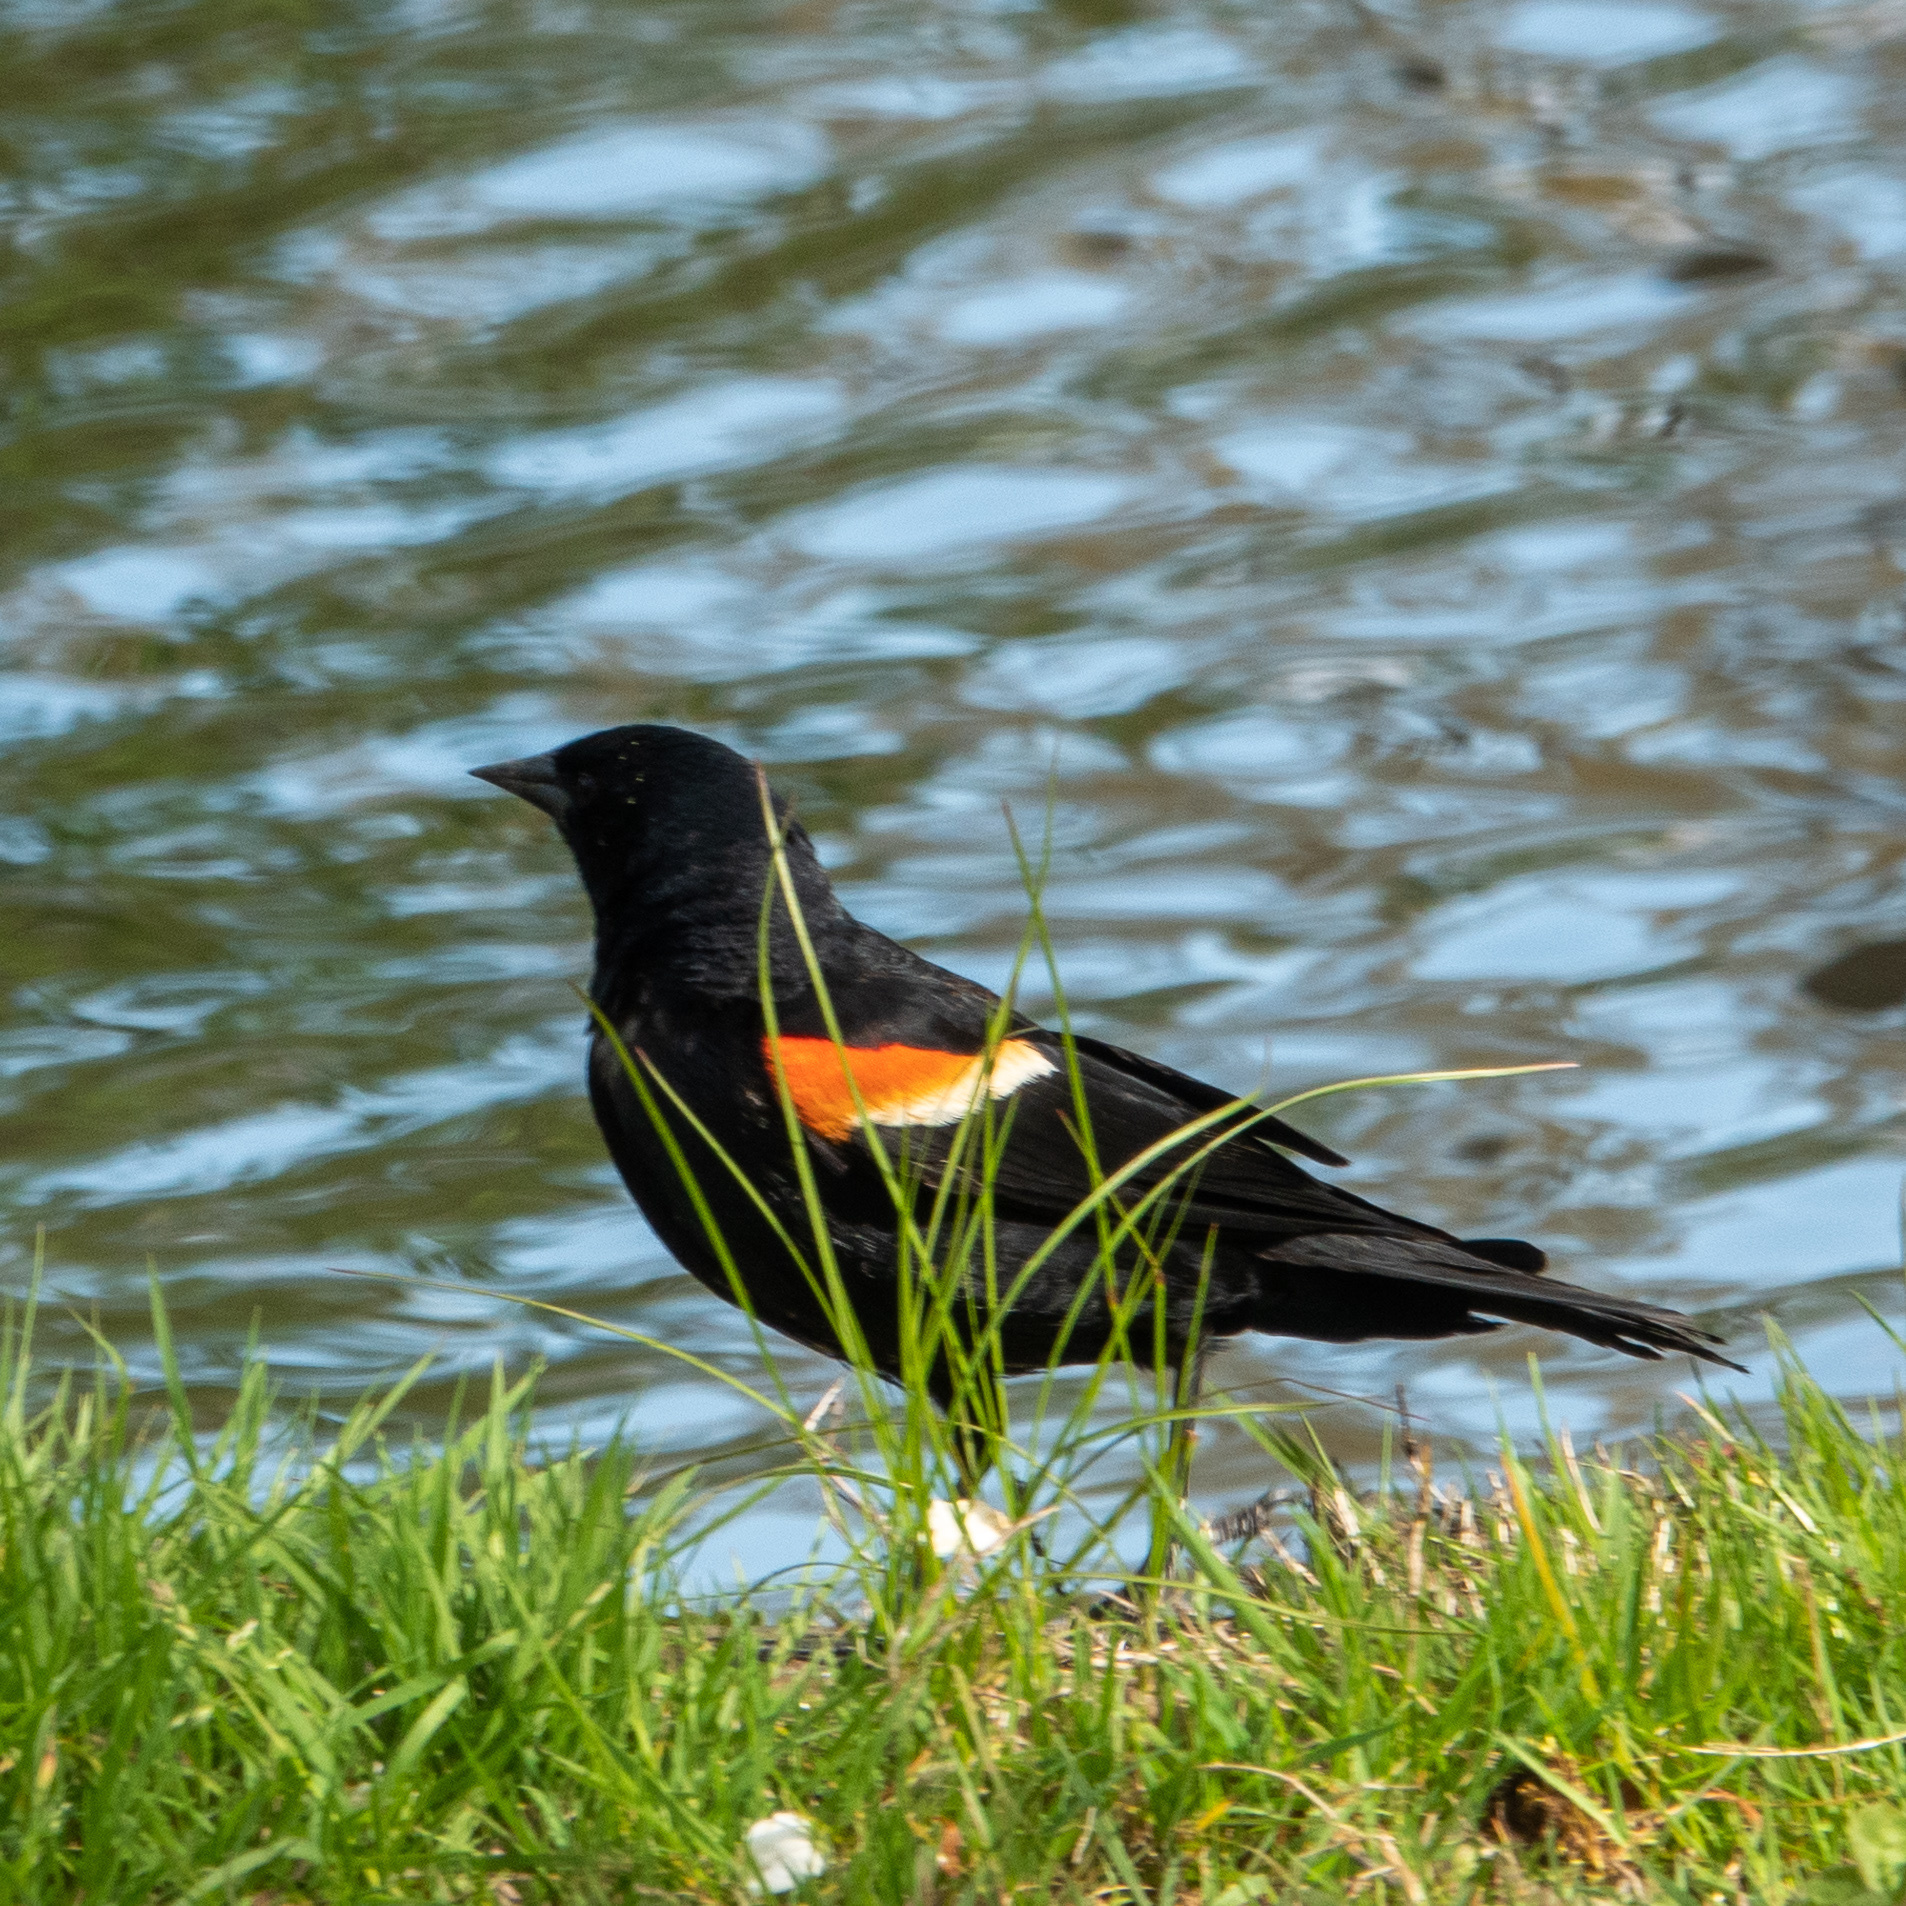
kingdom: Animalia
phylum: Chordata
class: Aves
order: Passeriformes
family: Icteridae
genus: Agelaius
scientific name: Agelaius phoeniceus
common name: Red-winged blackbird
